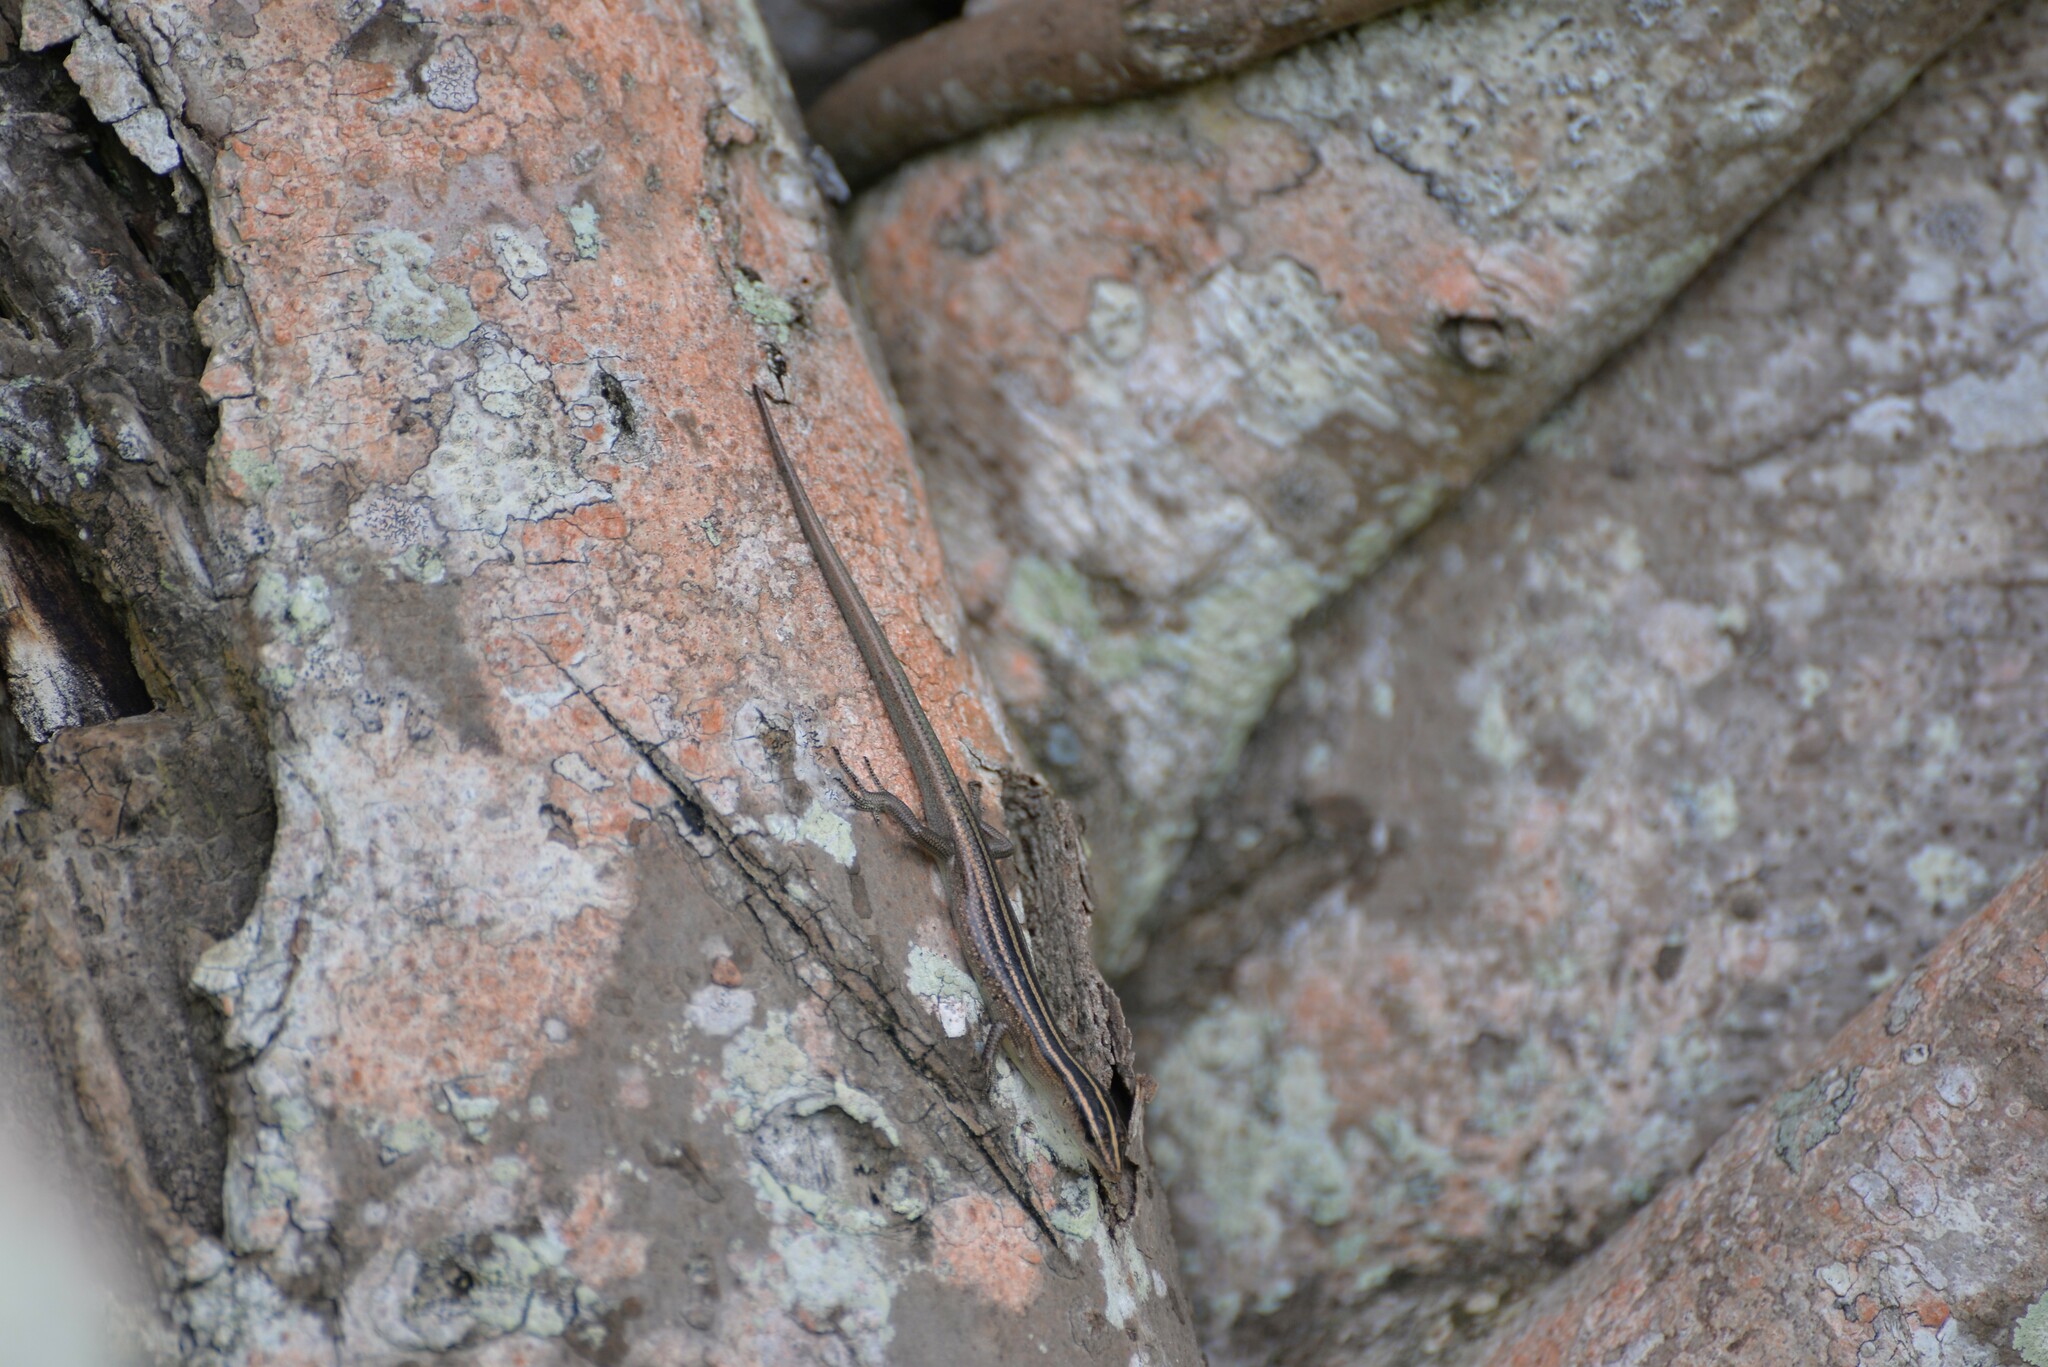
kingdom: Animalia
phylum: Chordata
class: Squamata
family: Scincidae
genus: Emoia
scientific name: Emoia cyanura
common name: Copper-tailed skink
